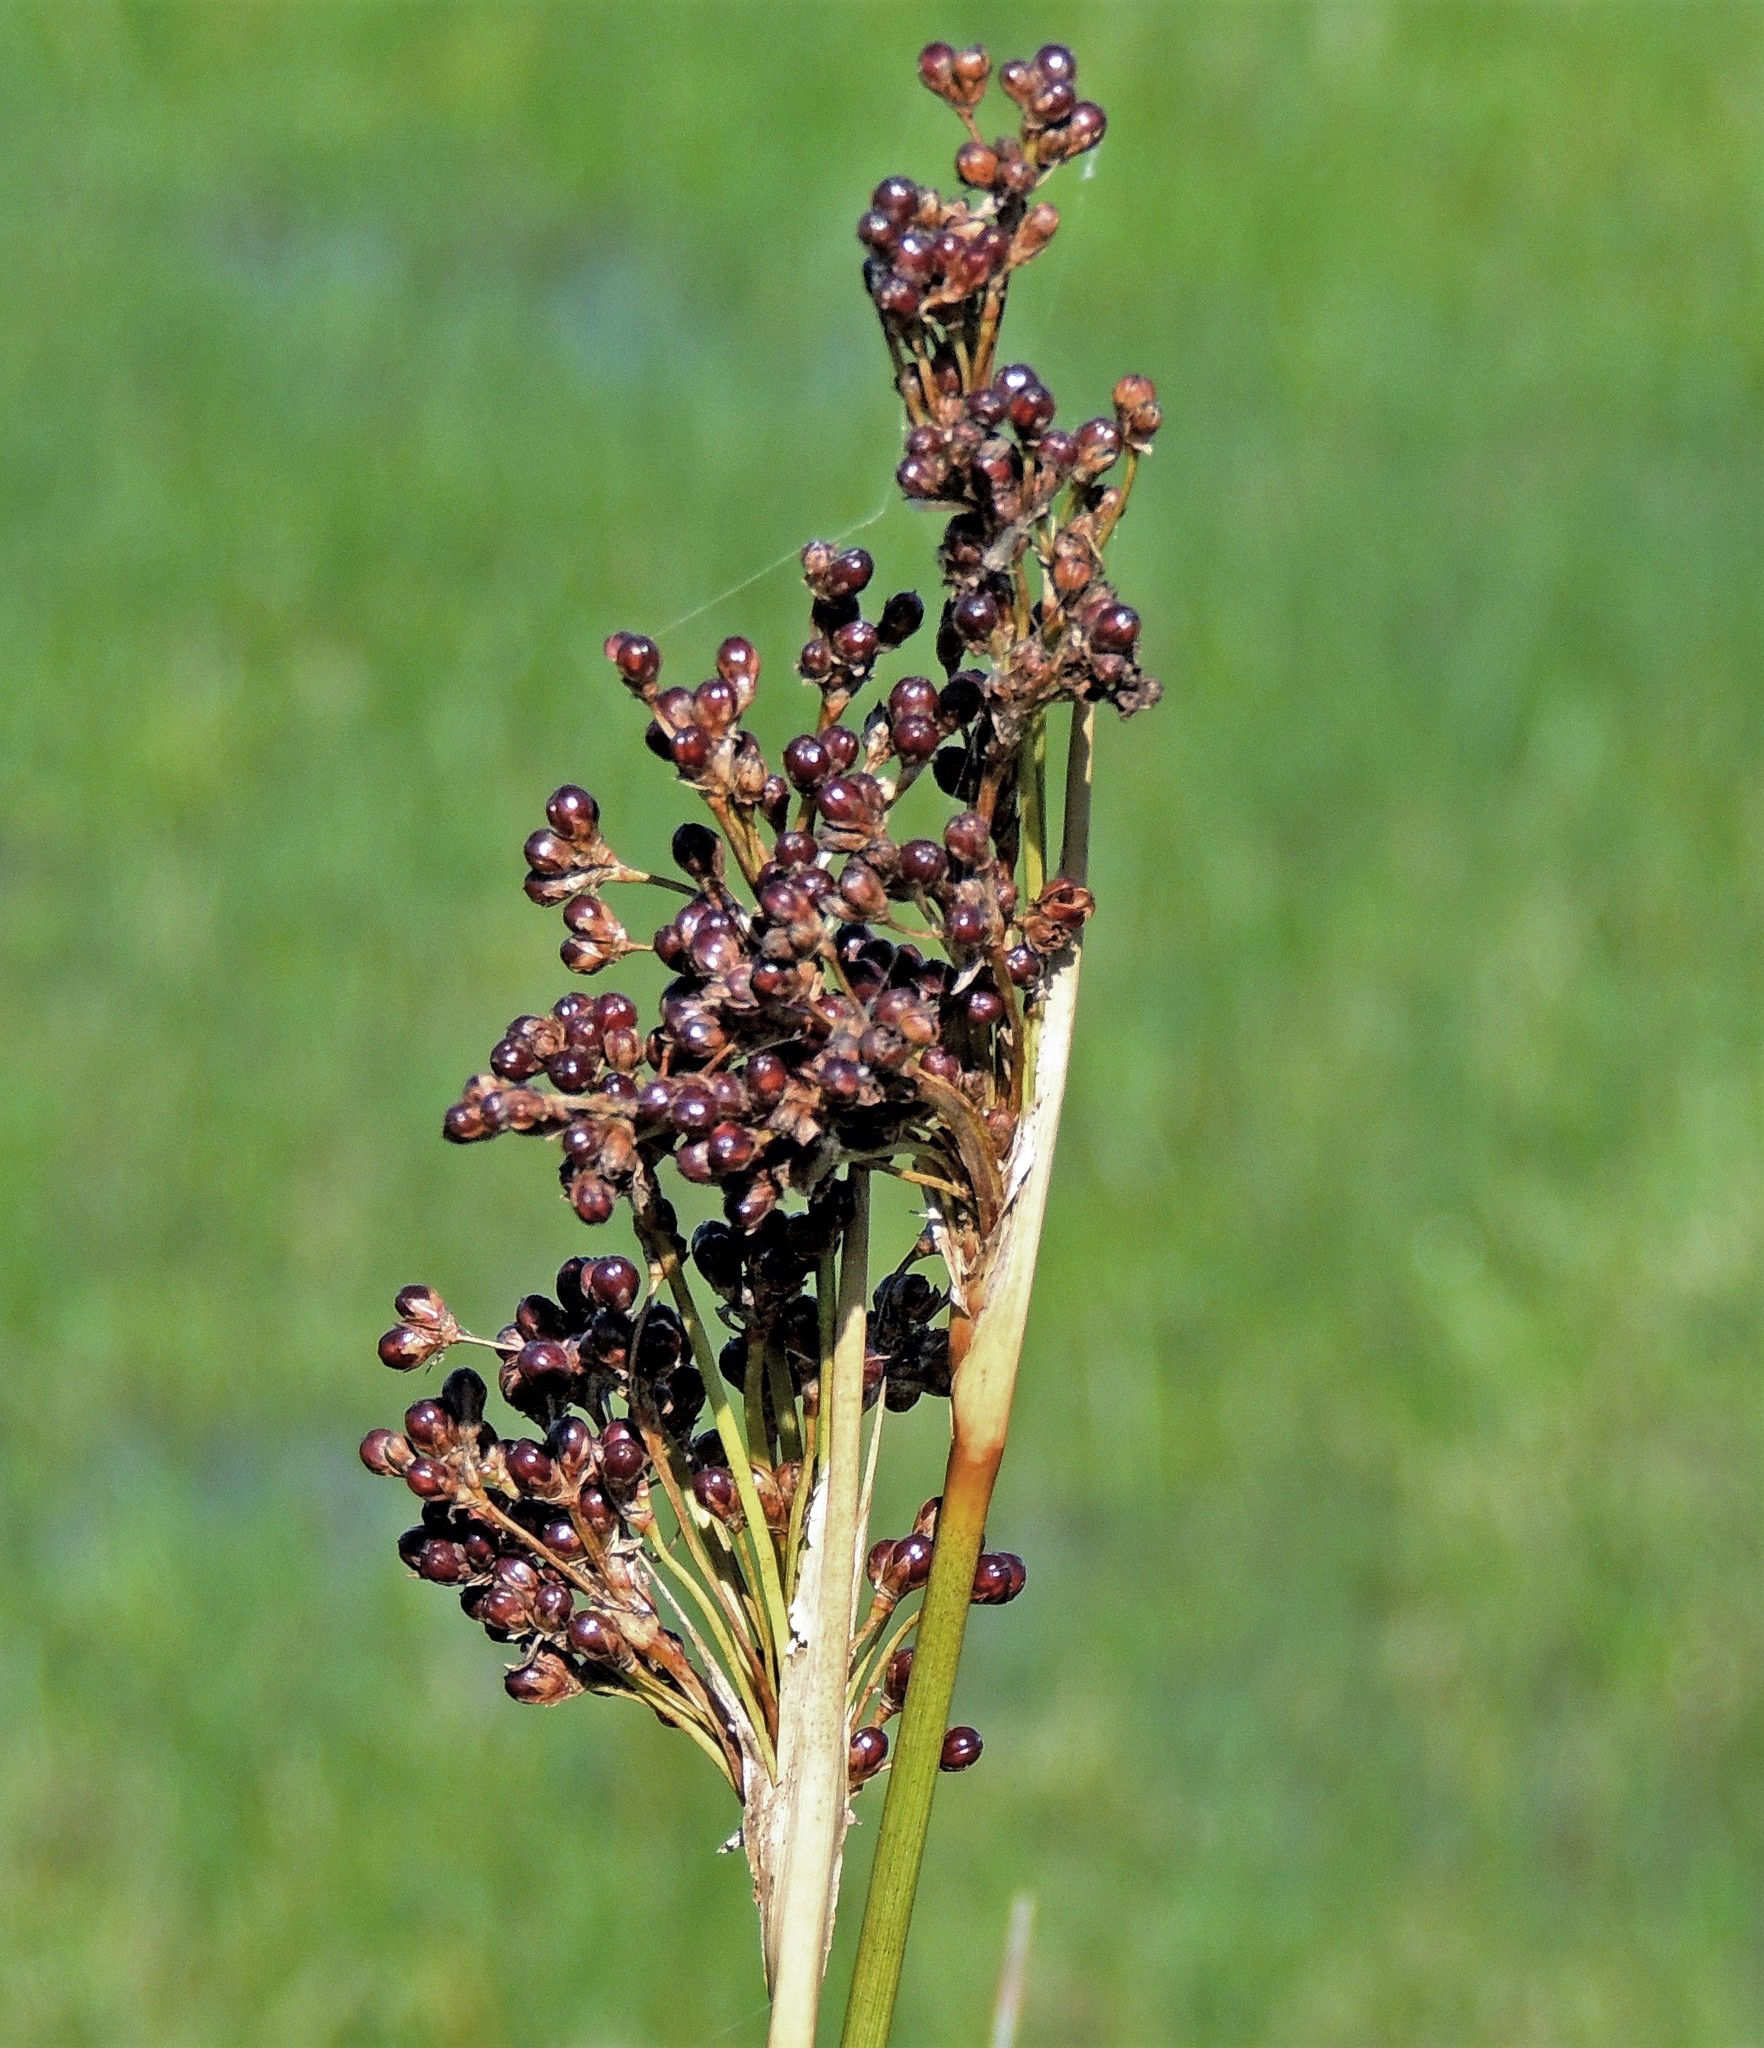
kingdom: Plantae
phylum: Tracheophyta
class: Liliopsida
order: Poales
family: Juncaceae
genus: Juncus
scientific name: Juncus acutus
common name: Sharp rush
